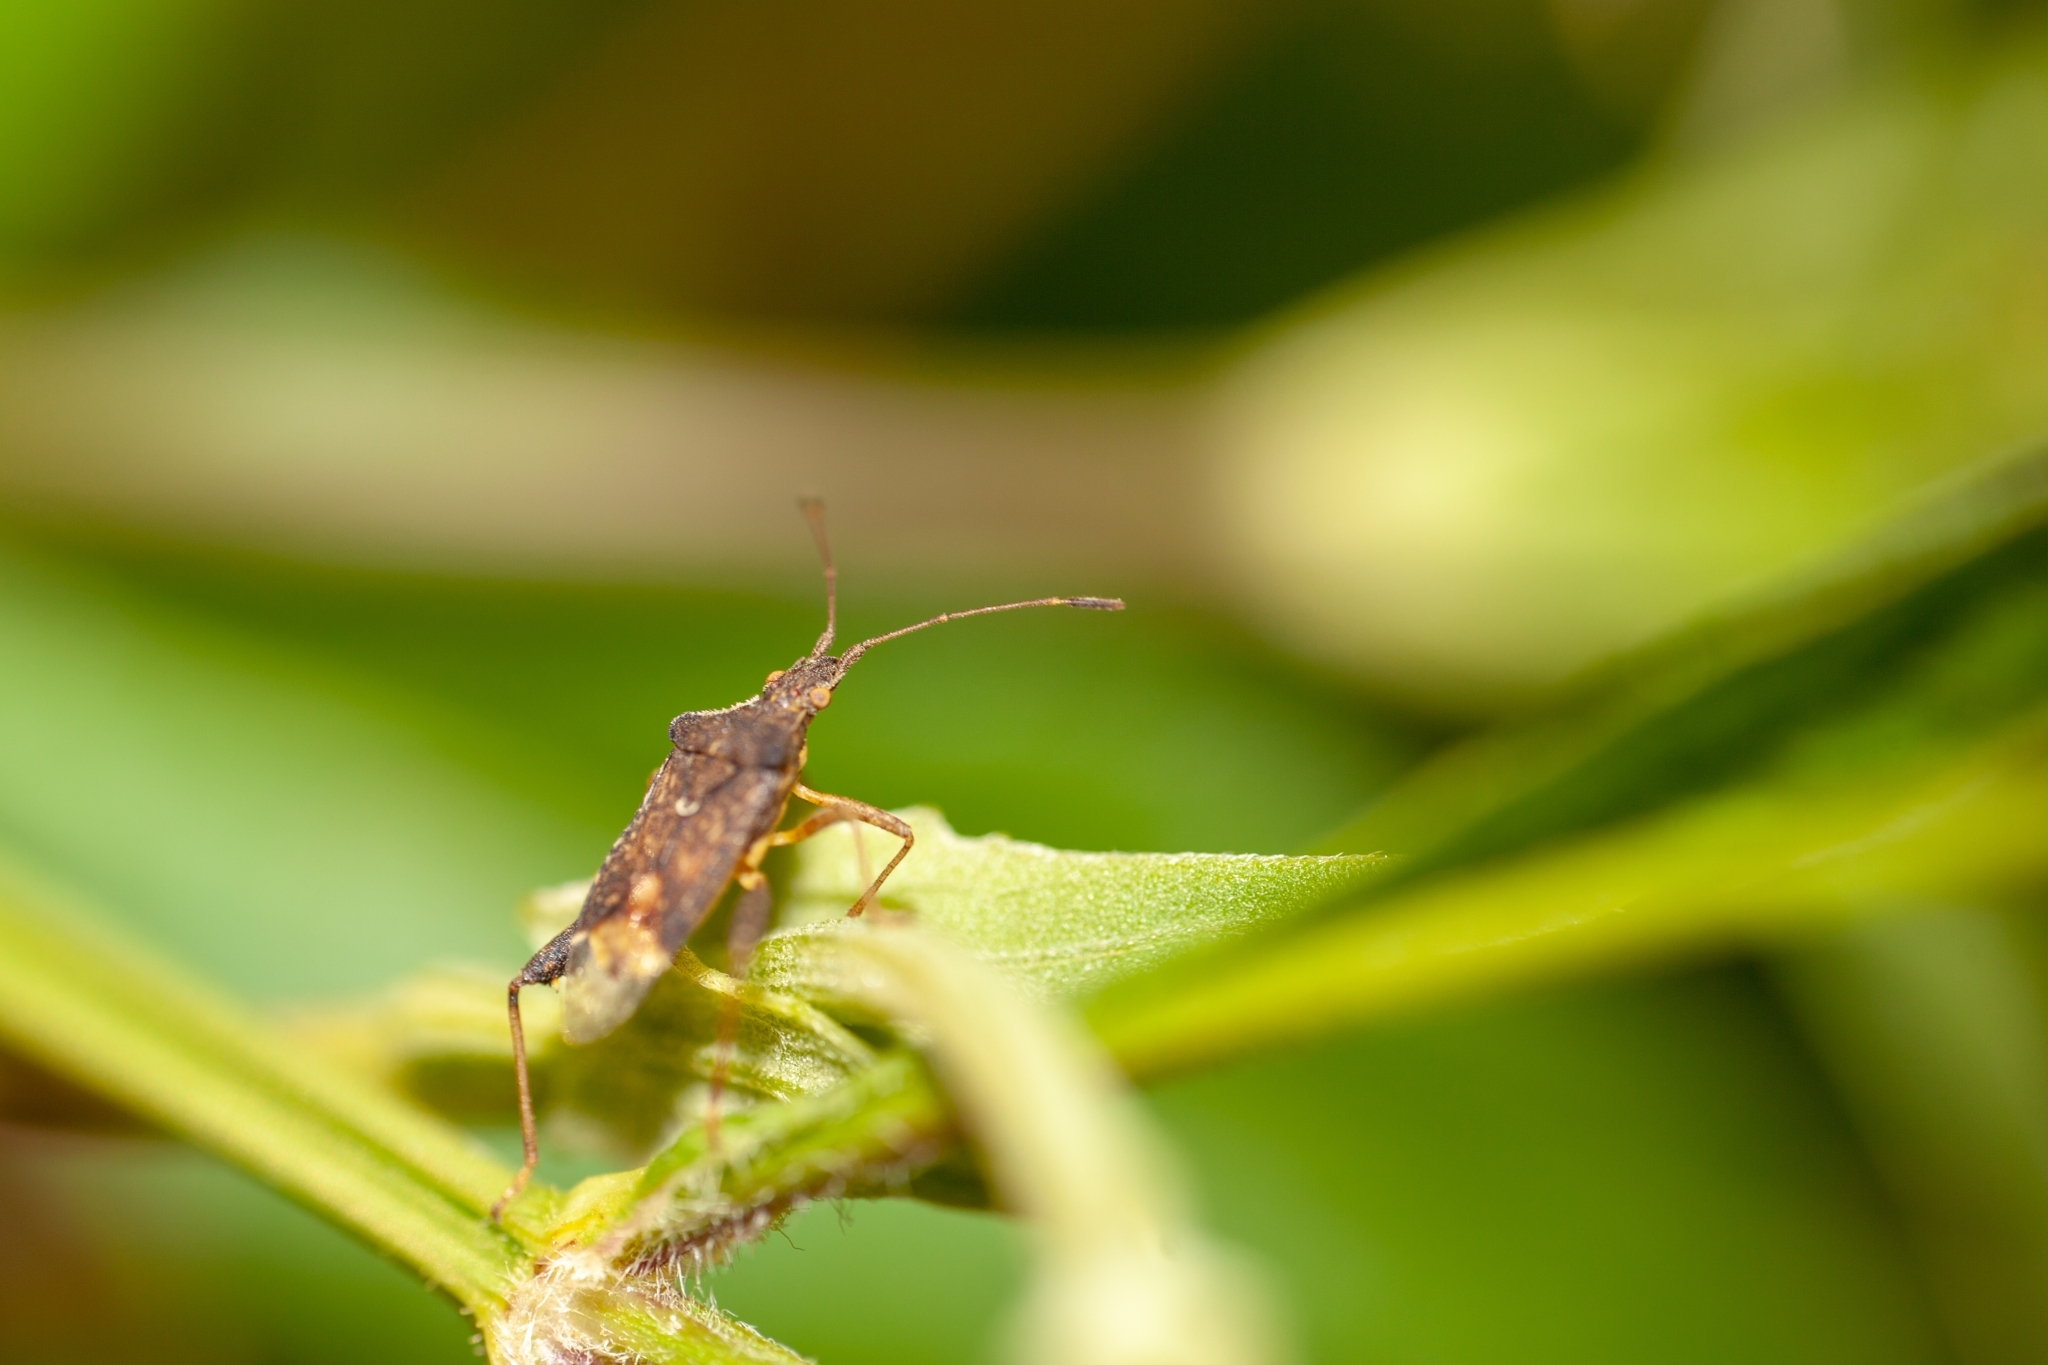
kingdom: Animalia
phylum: Arthropoda
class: Insecta
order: Hemiptera
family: Rhopalidae
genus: Harmostes
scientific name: Harmostes serratus
